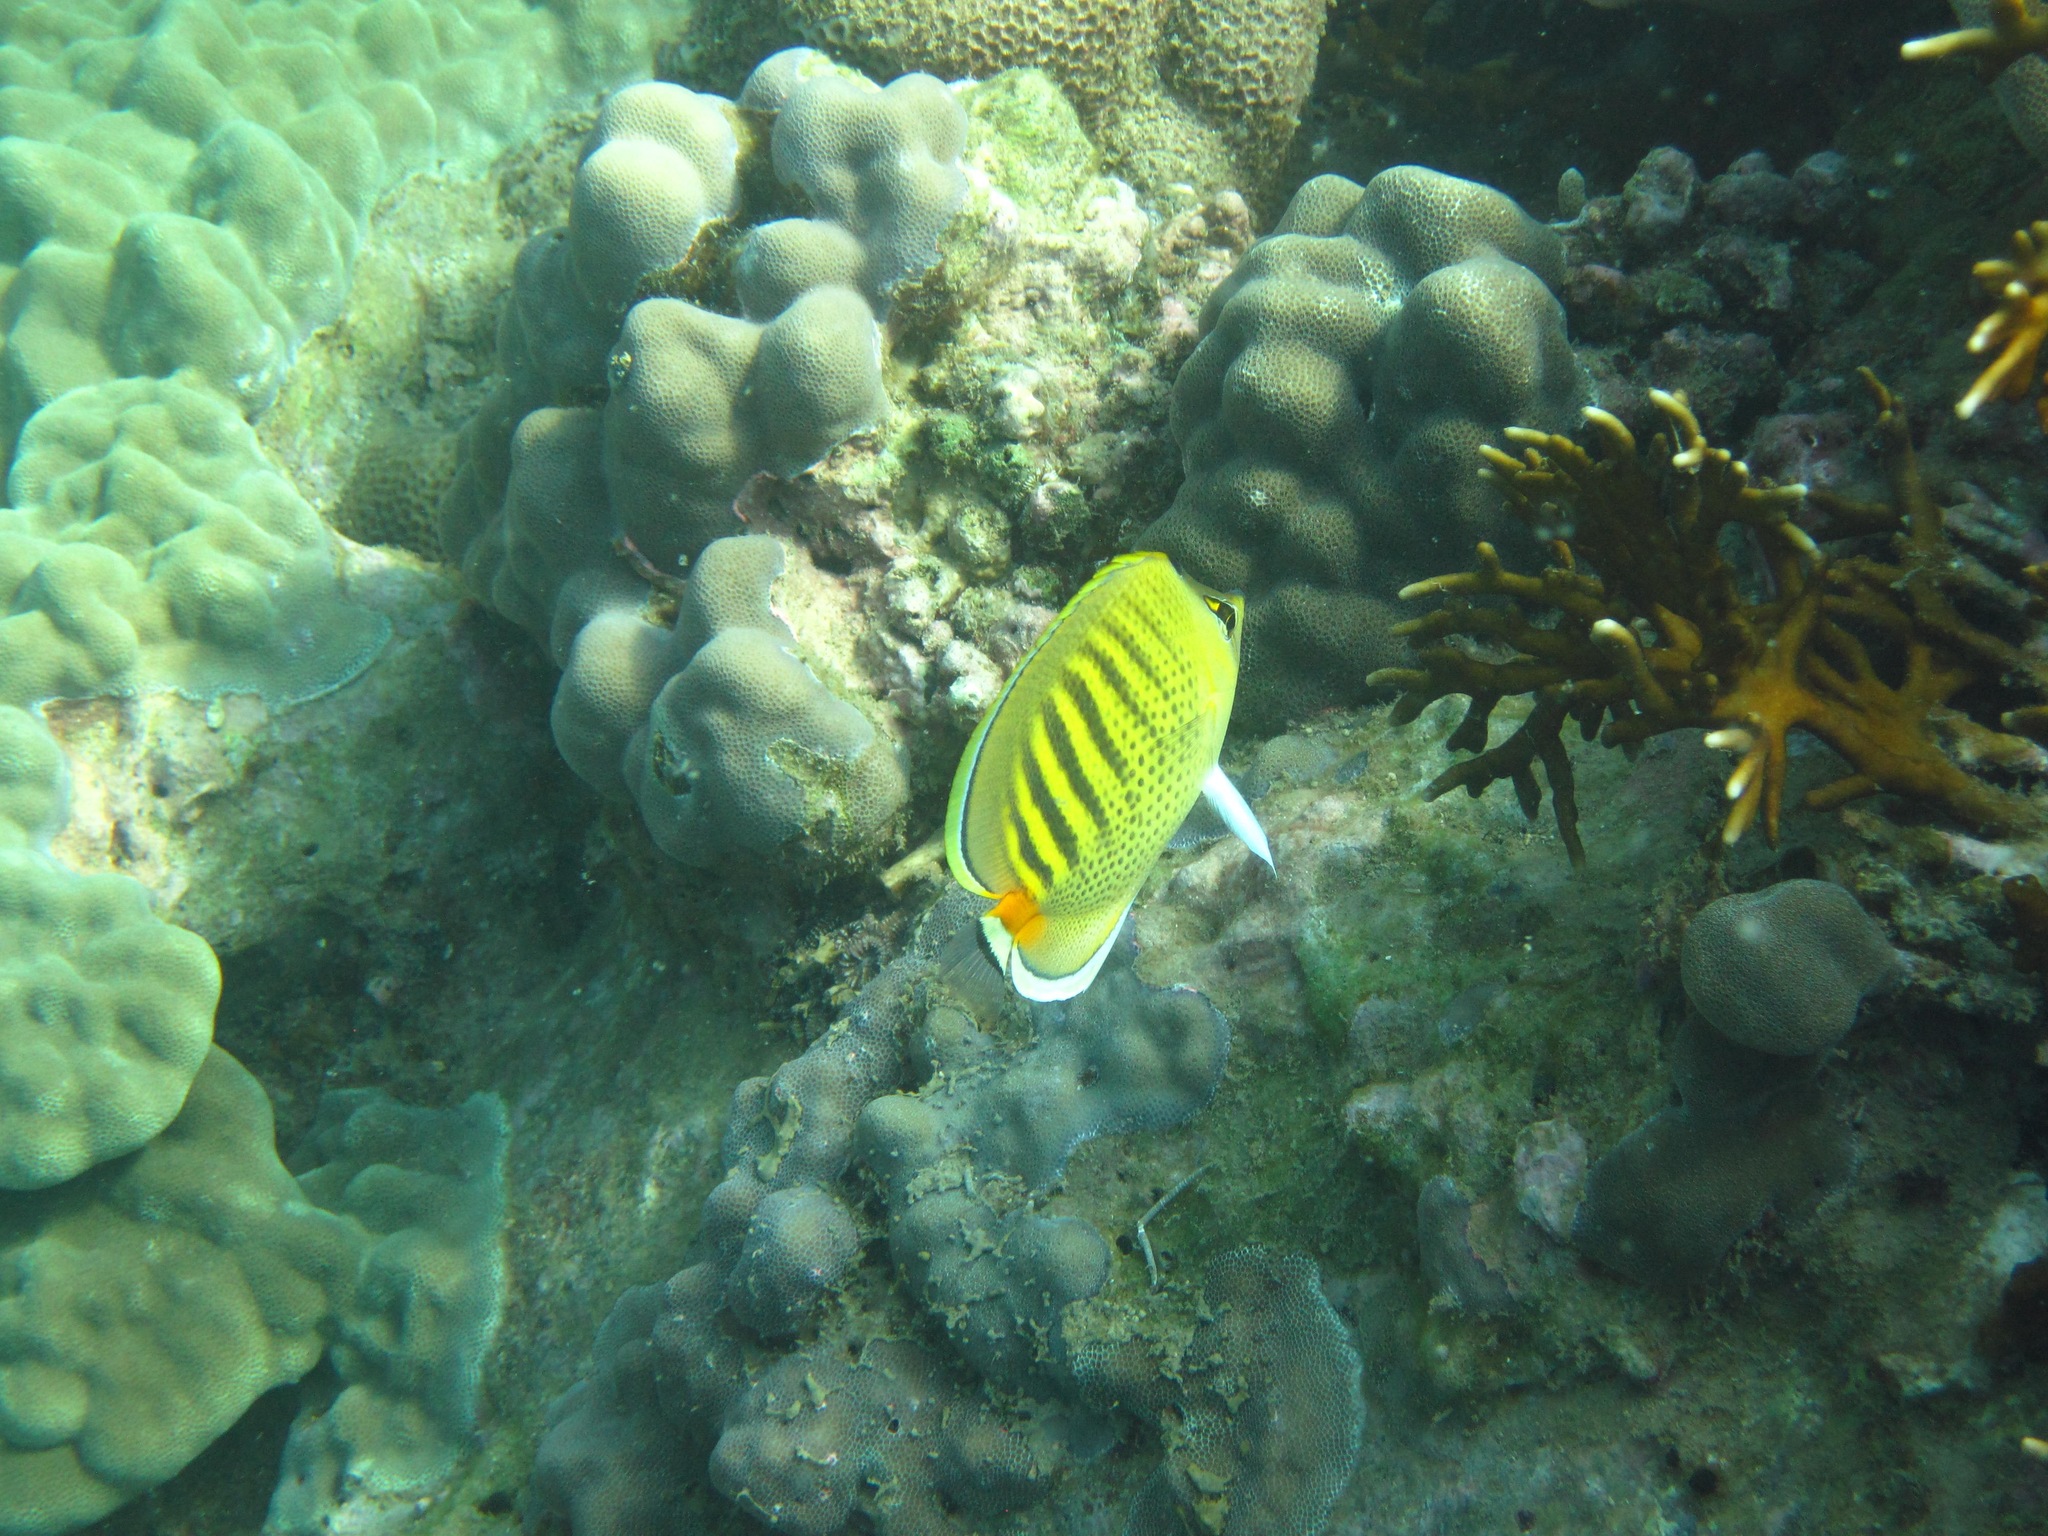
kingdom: Animalia
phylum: Chordata
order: Perciformes
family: Chaetodontidae
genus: Chaetodon
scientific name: Chaetodon punctatofasciatus
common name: Spot-banded butterflyfish
